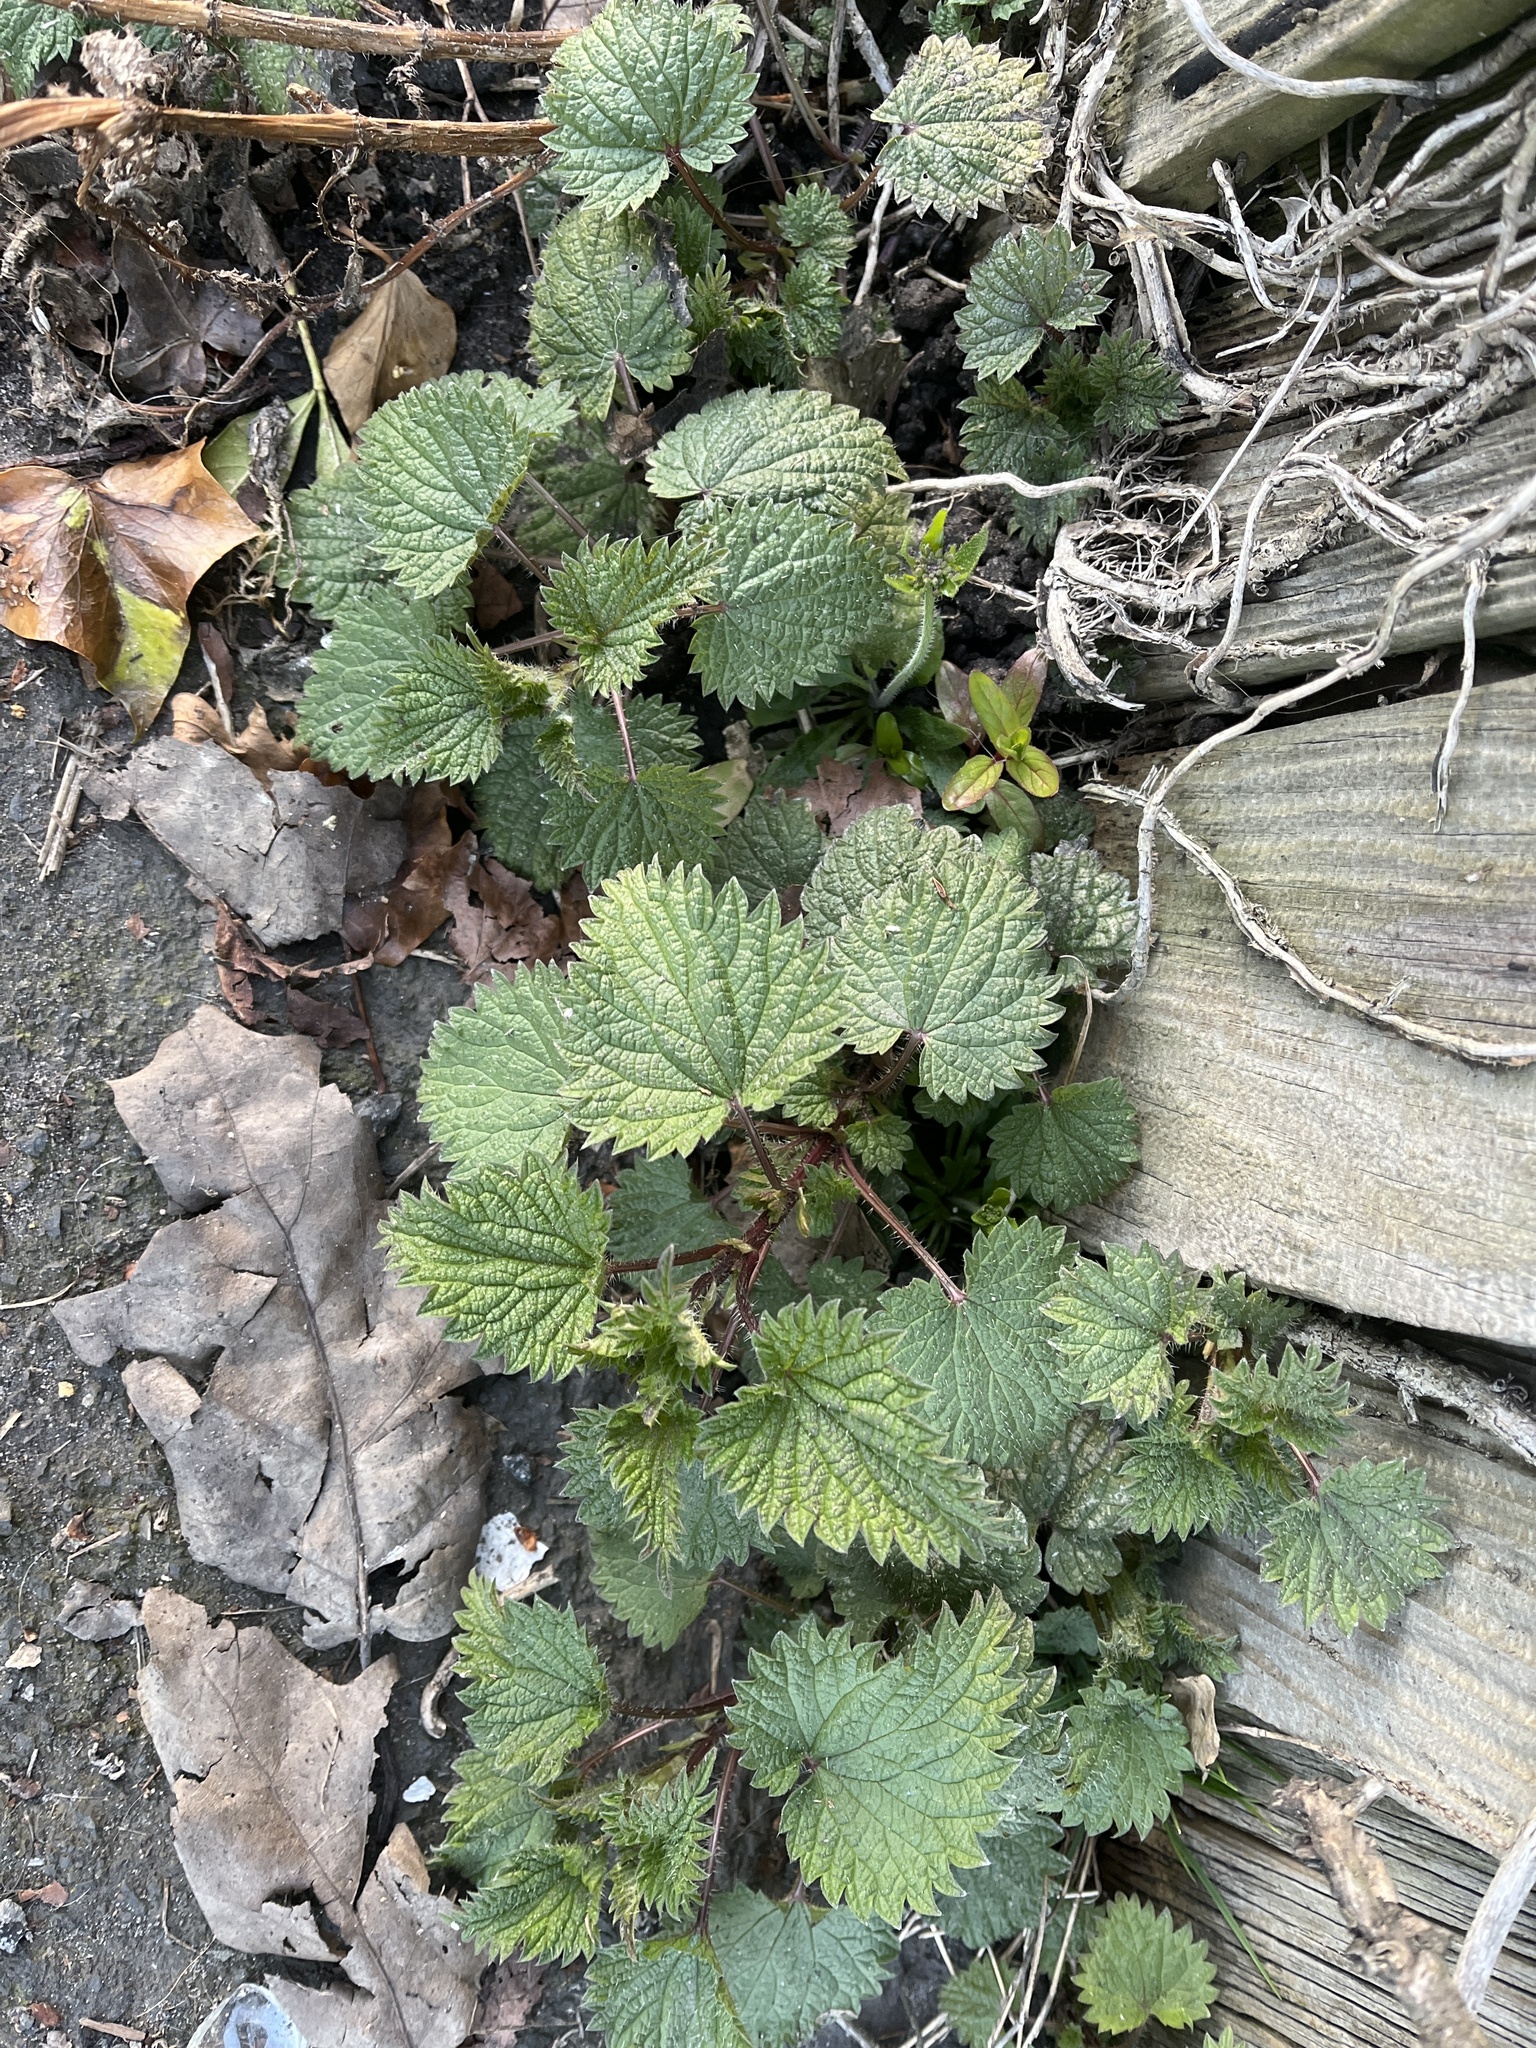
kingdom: Plantae
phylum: Tracheophyta
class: Magnoliopsida
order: Rosales
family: Urticaceae
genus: Urtica
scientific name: Urtica dioica
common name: Common nettle
